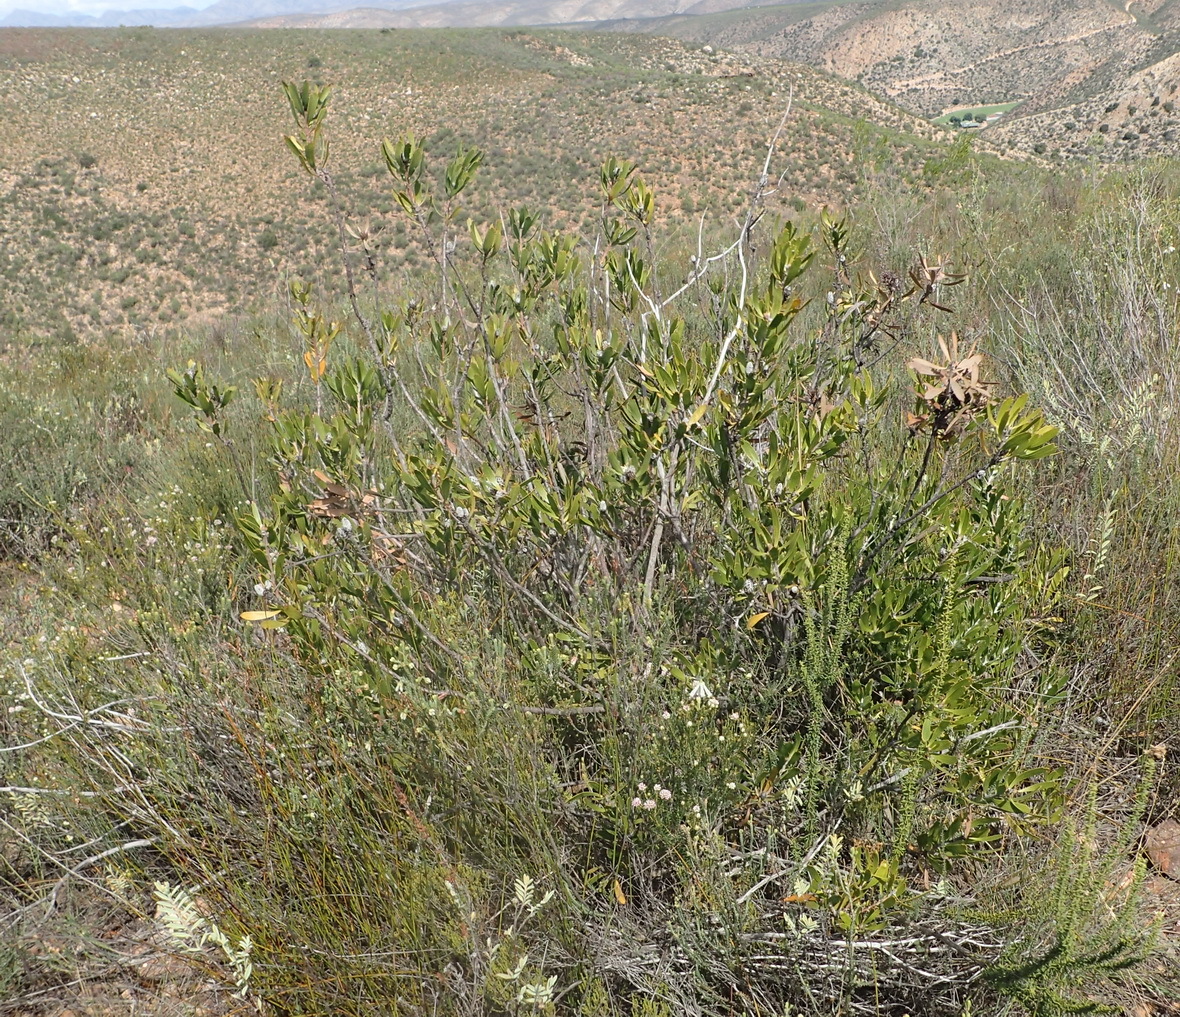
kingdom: Plantae
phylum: Tracheophyta
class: Magnoliopsida
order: Proteales
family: Proteaceae
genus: Leucospermum
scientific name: Leucospermum cuneiforme
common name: Common pincushion
